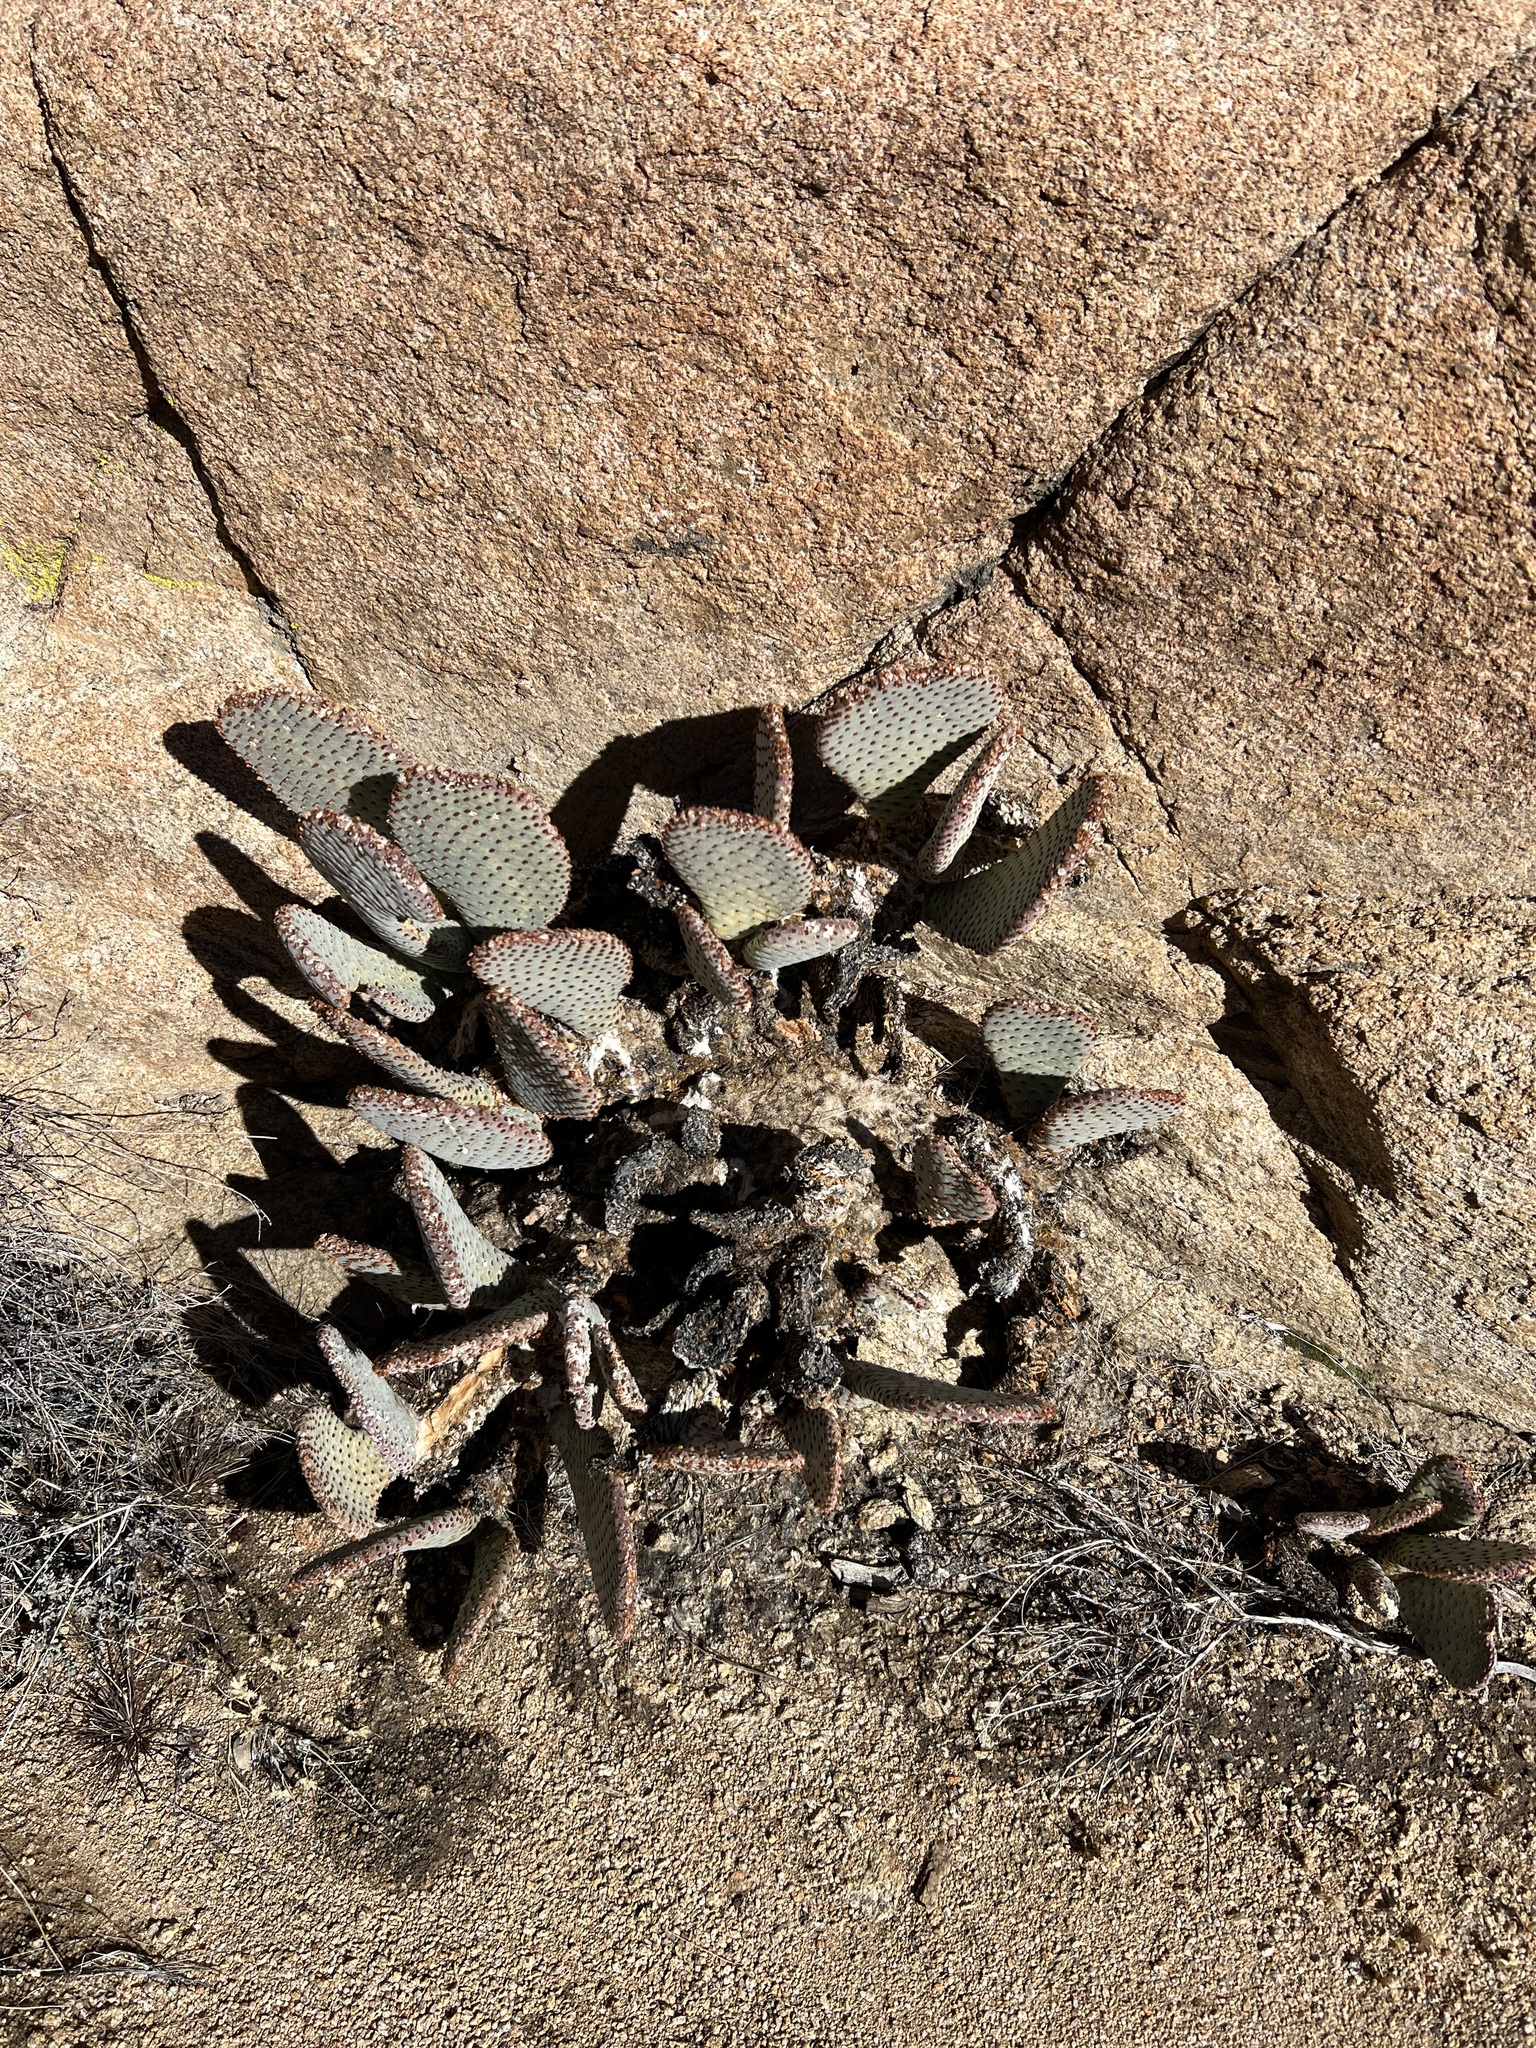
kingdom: Plantae
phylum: Tracheophyta
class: Magnoliopsida
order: Caryophyllales
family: Cactaceae
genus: Opuntia
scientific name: Opuntia basilaris
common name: Beavertail prickly-pear
